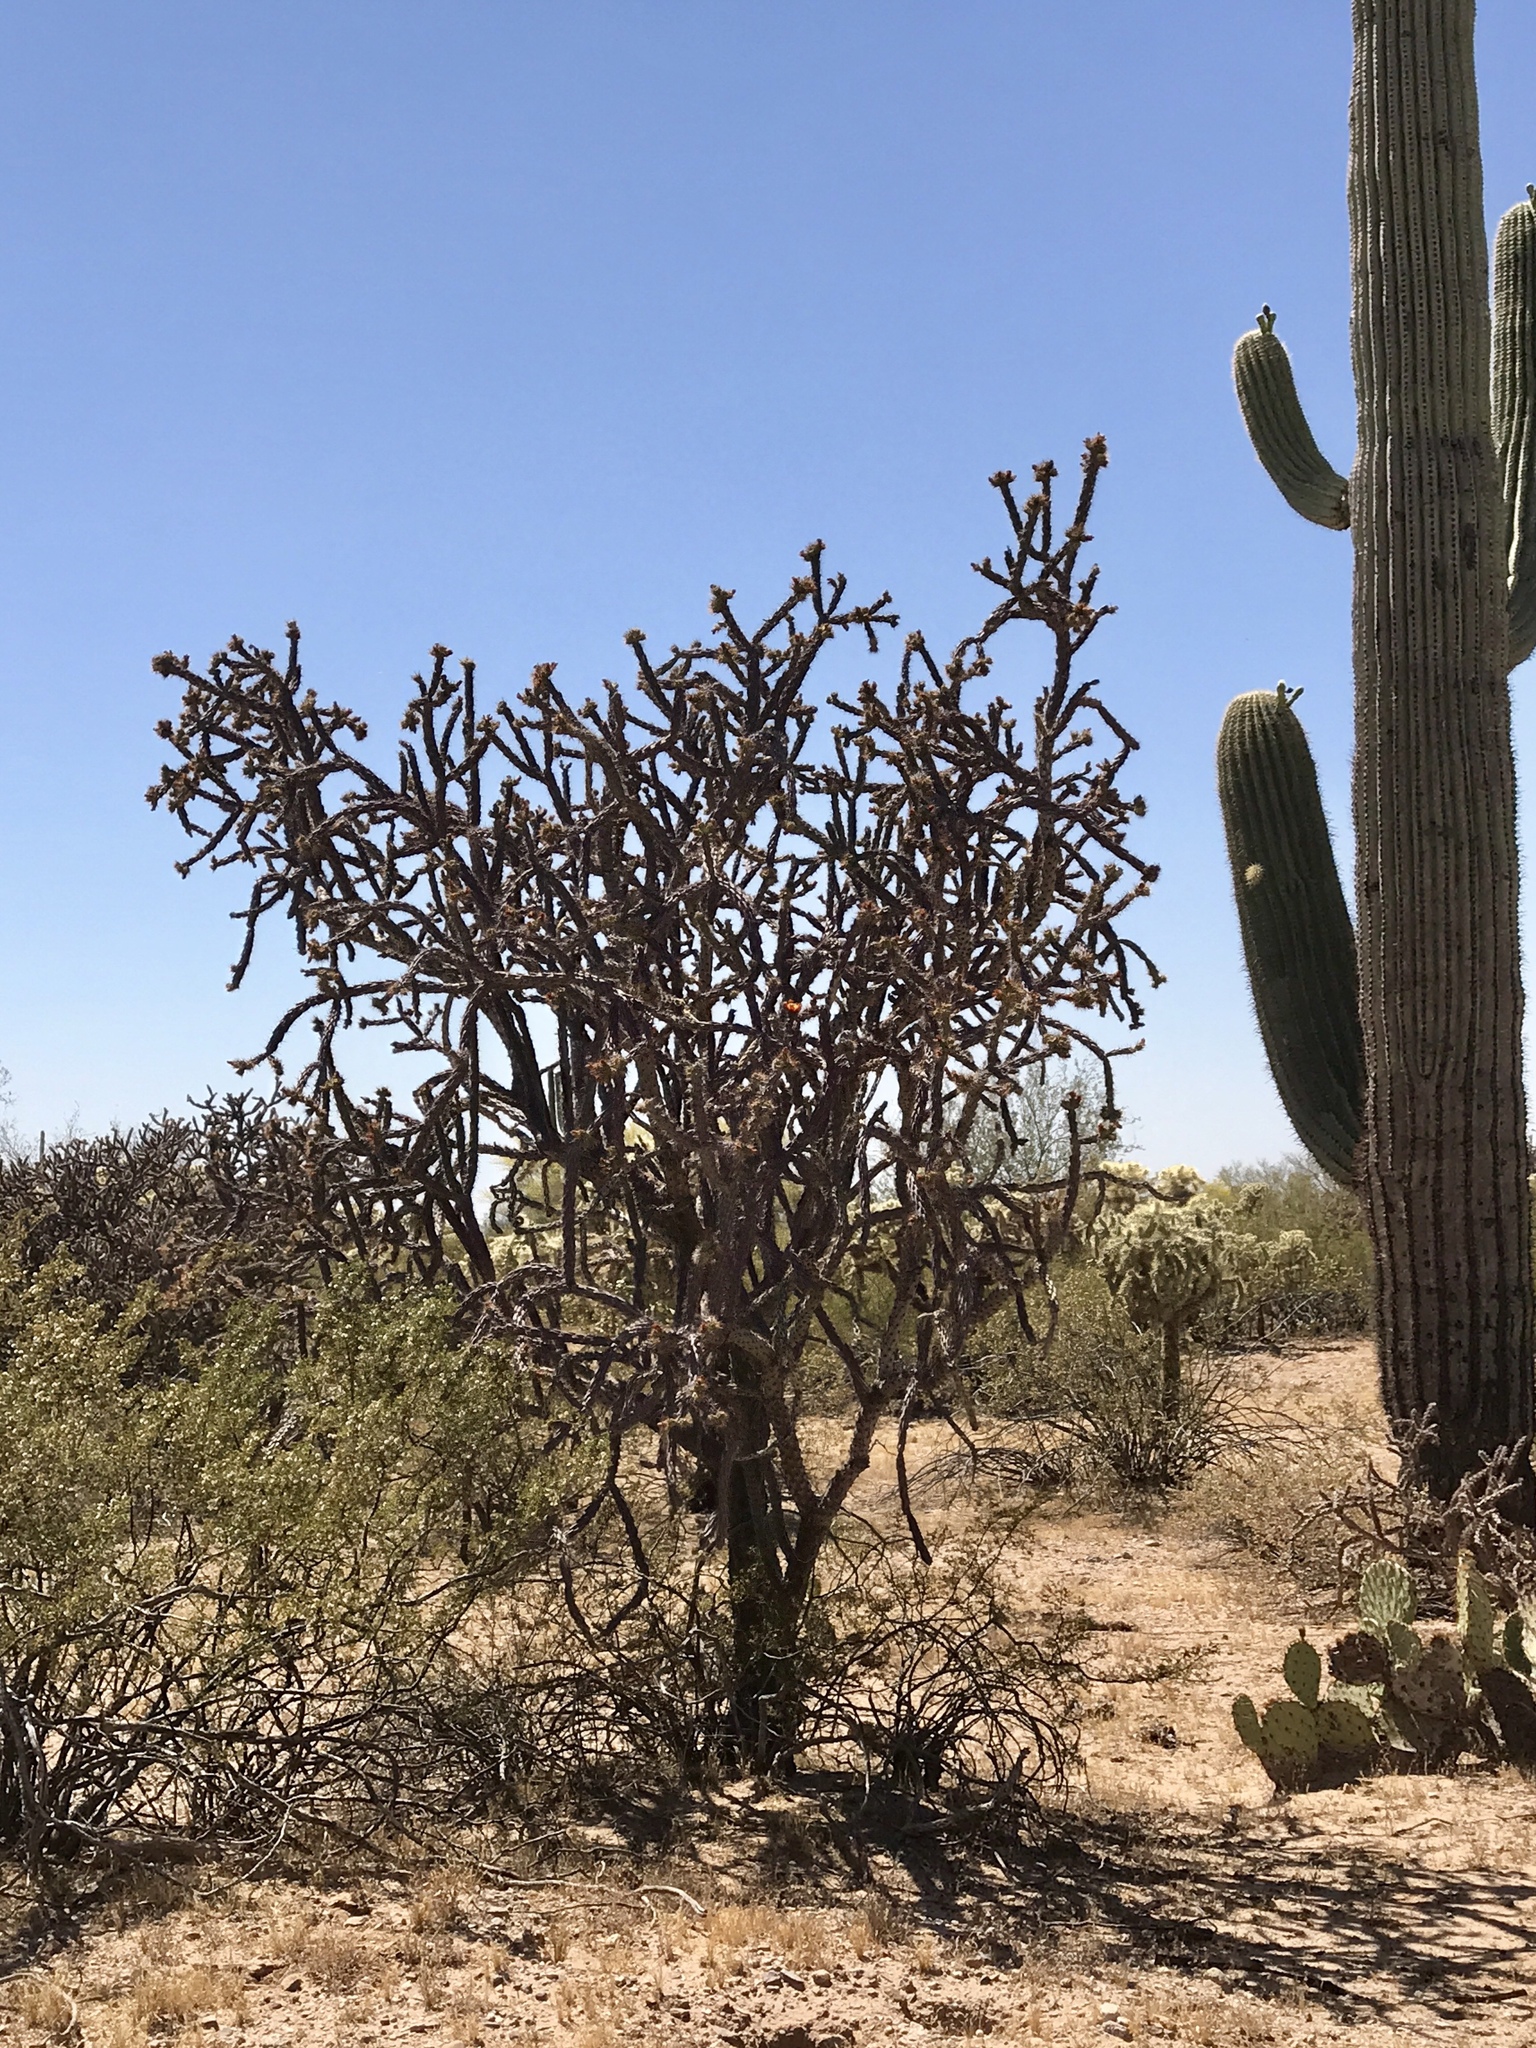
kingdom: Plantae
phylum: Tracheophyta
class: Magnoliopsida
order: Caryophyllales
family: Cactaceae
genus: Cylindropuntia
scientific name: Cylindropuntia thurberi
